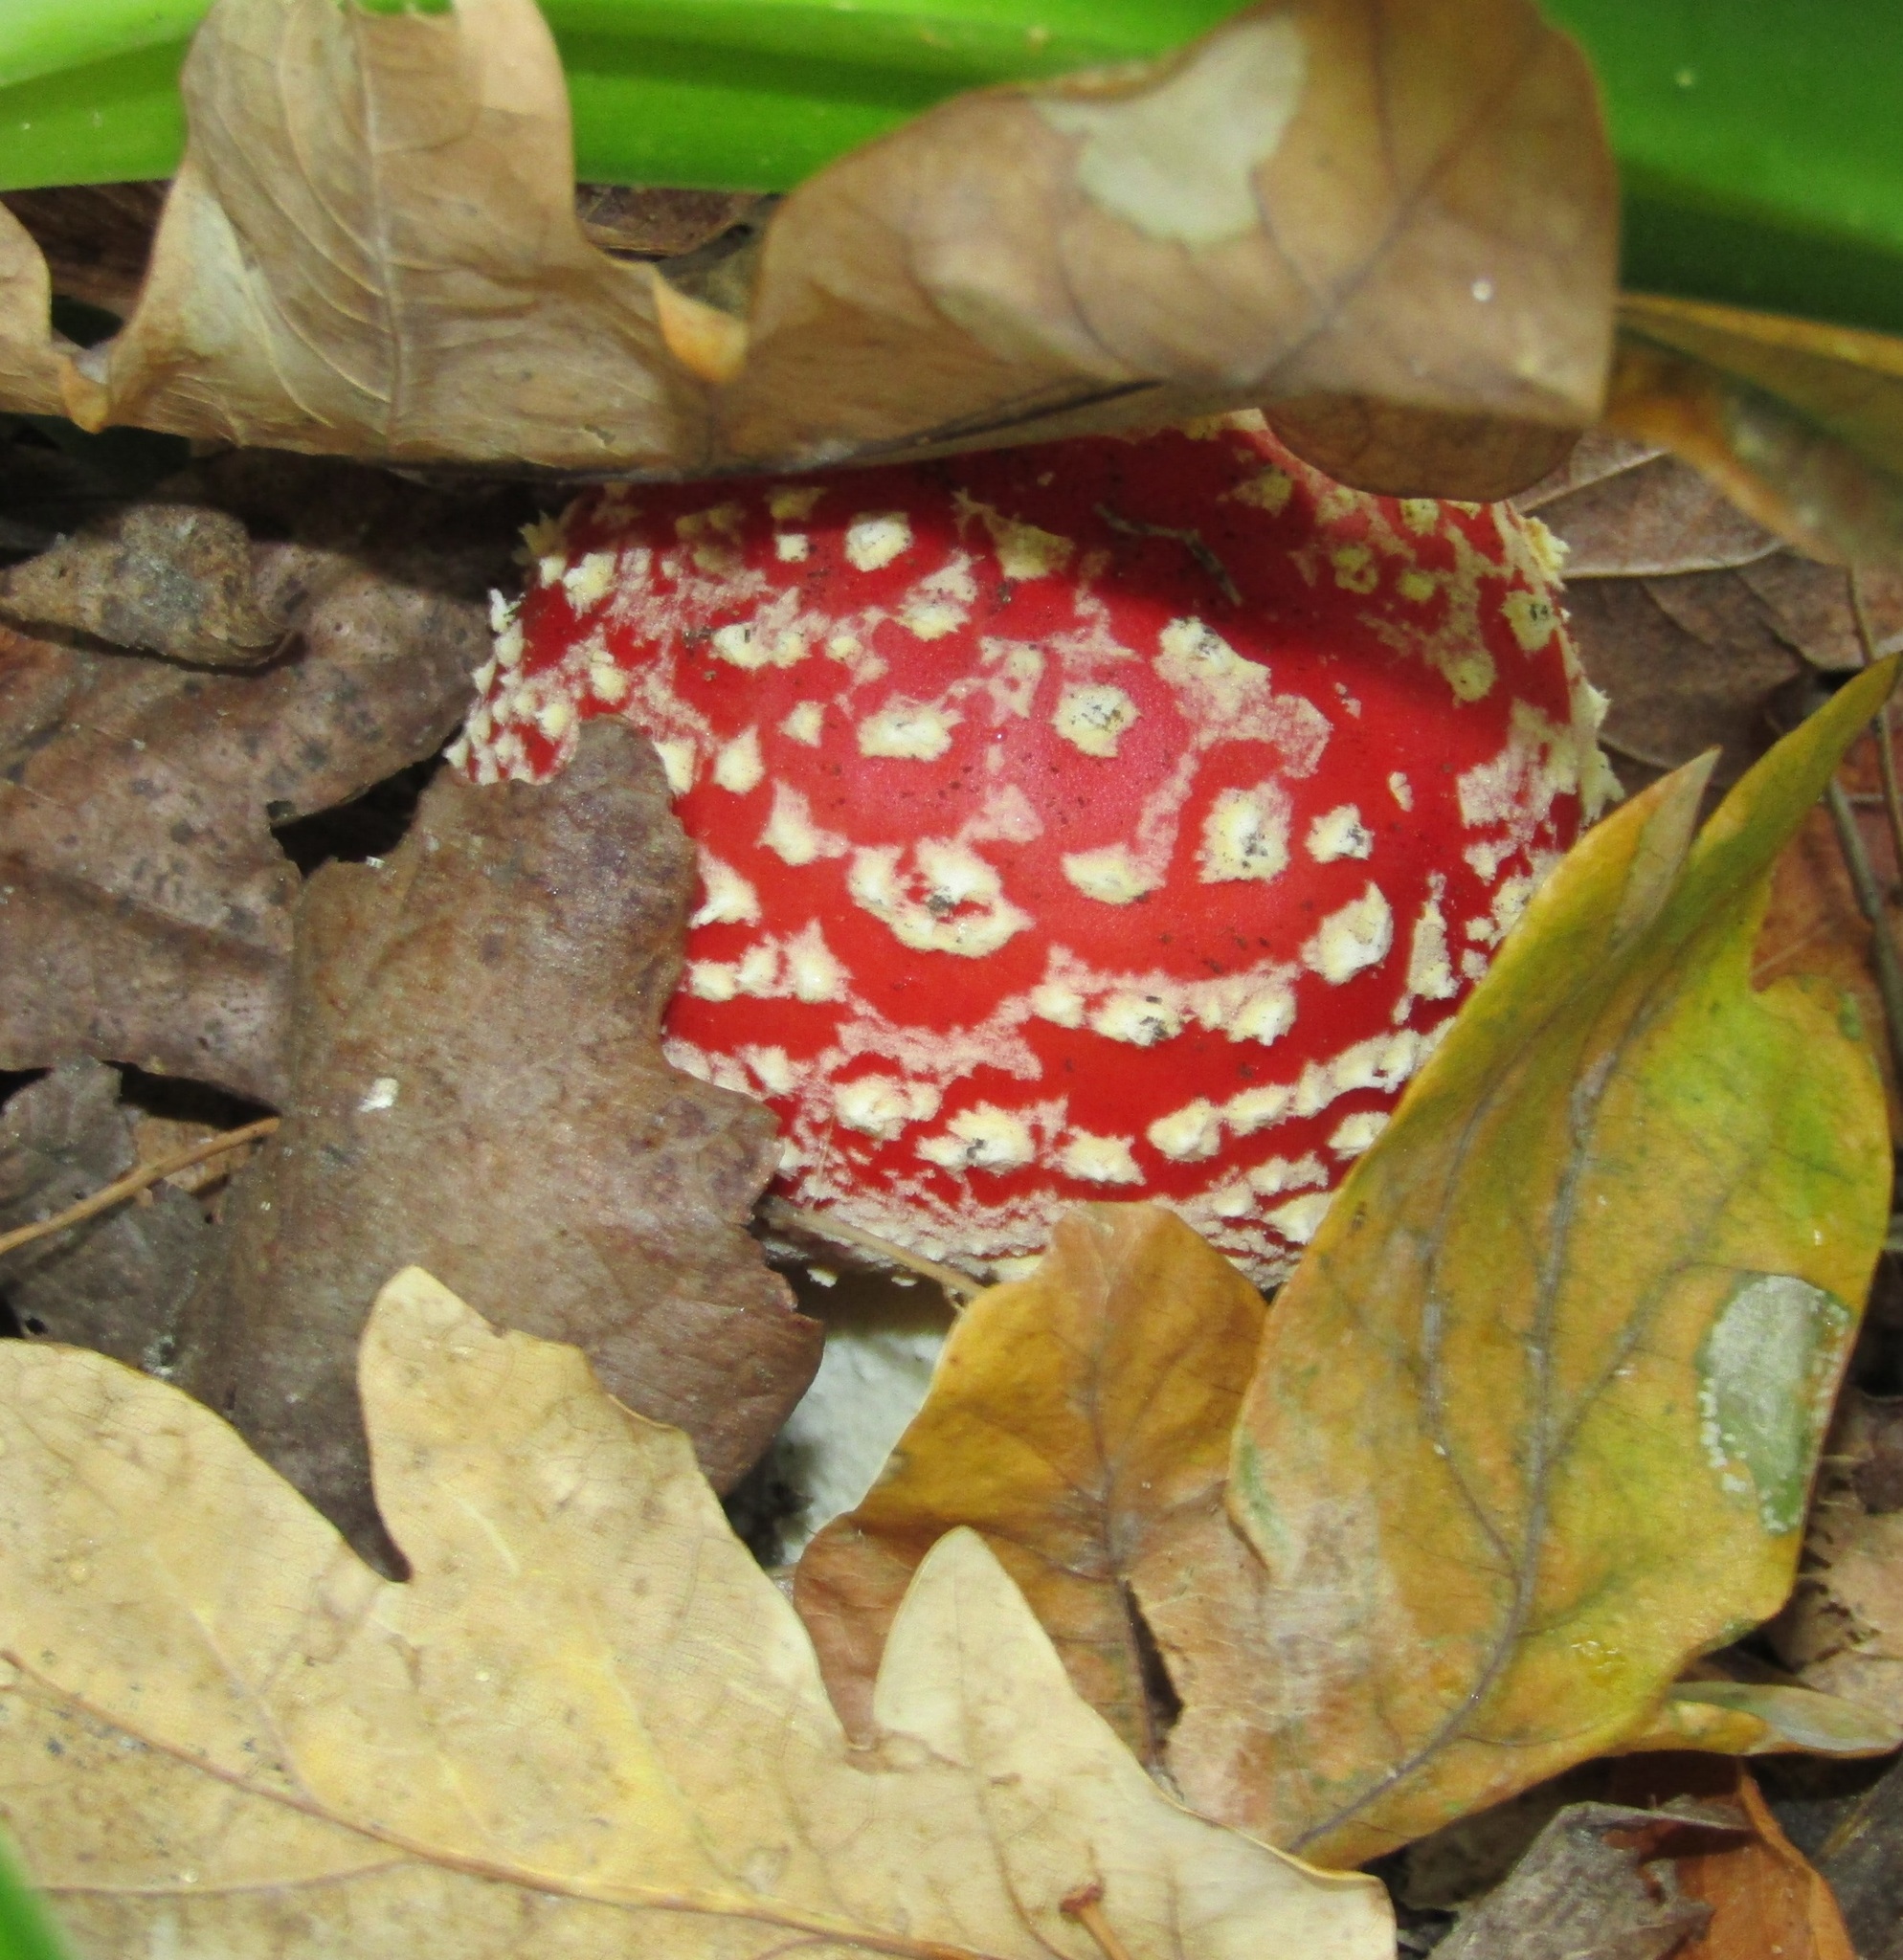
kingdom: Fungi
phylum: Basidiomycota
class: Agaricomycetes
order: Agaricales
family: Amanitaceae
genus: Amanita
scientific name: Amanita muscaria
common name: Fly agaric
